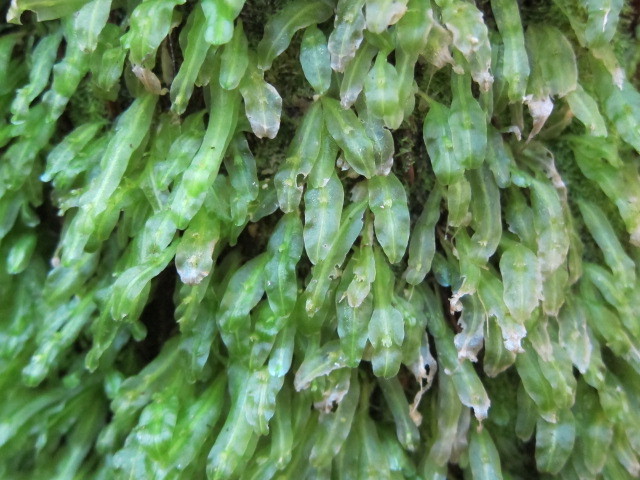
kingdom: Plantae
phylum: Marchantiophyta
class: Jungermanniopsida
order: Pallaviciniales
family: Pallaviciniaceae
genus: Symphyogyna
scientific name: Symphyogyna subsimplex
